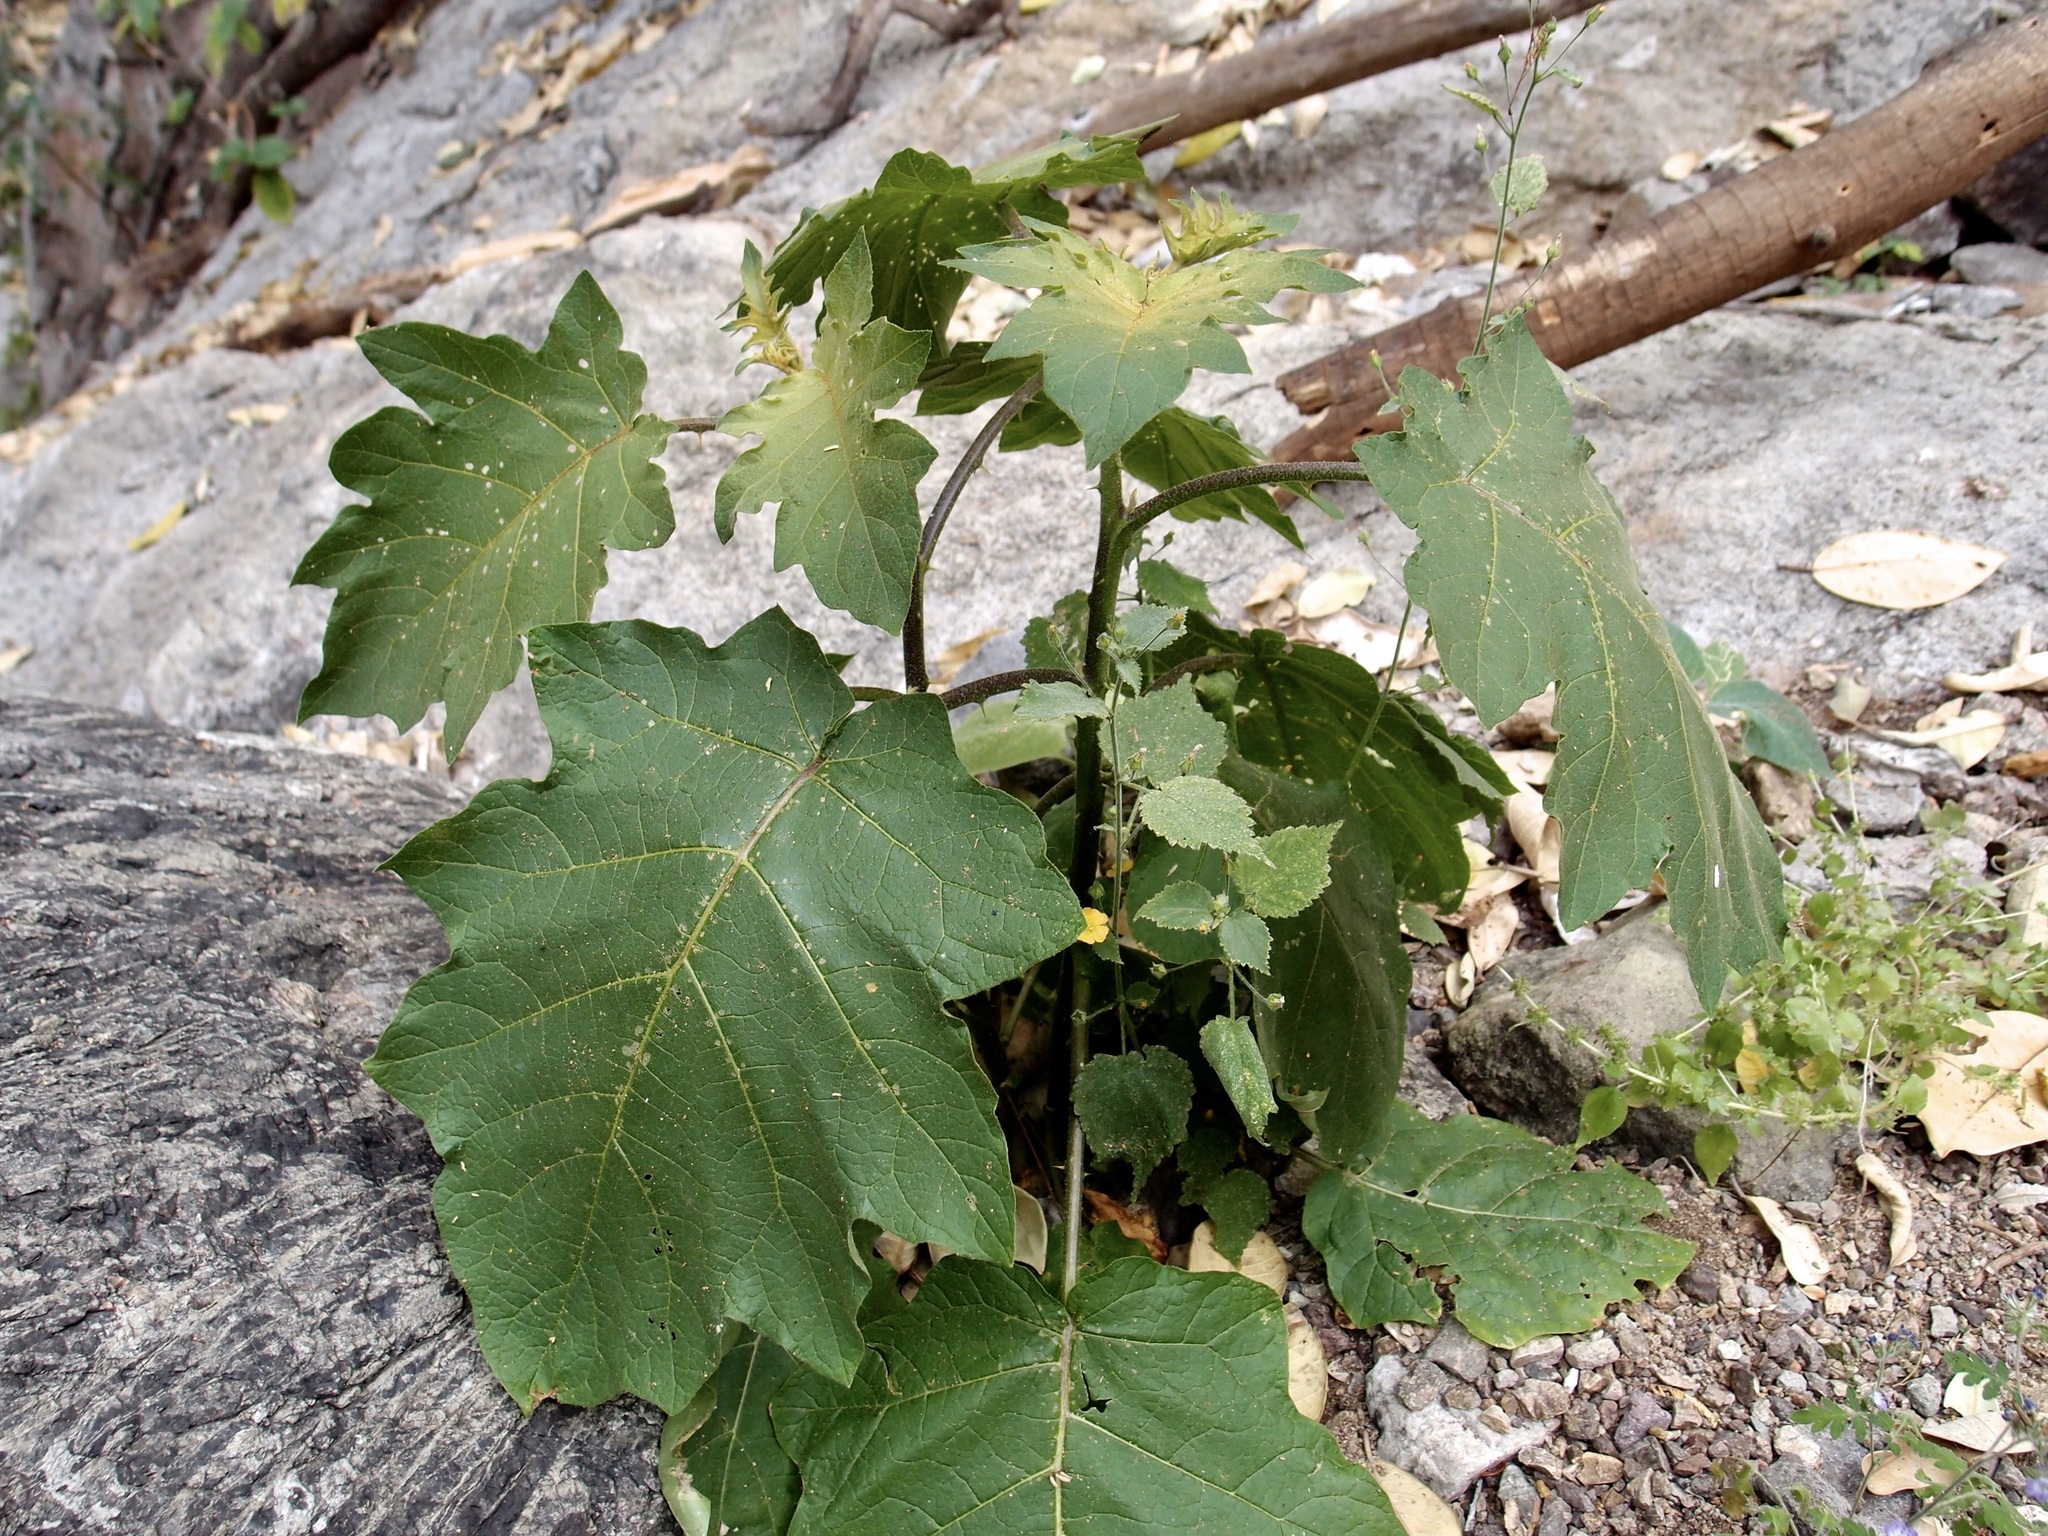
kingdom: Plantae
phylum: Tracheophyta
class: Magnoliopsida
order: Solanales
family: Solanaceae
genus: Solanum
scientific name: Solanum ferrugineum
